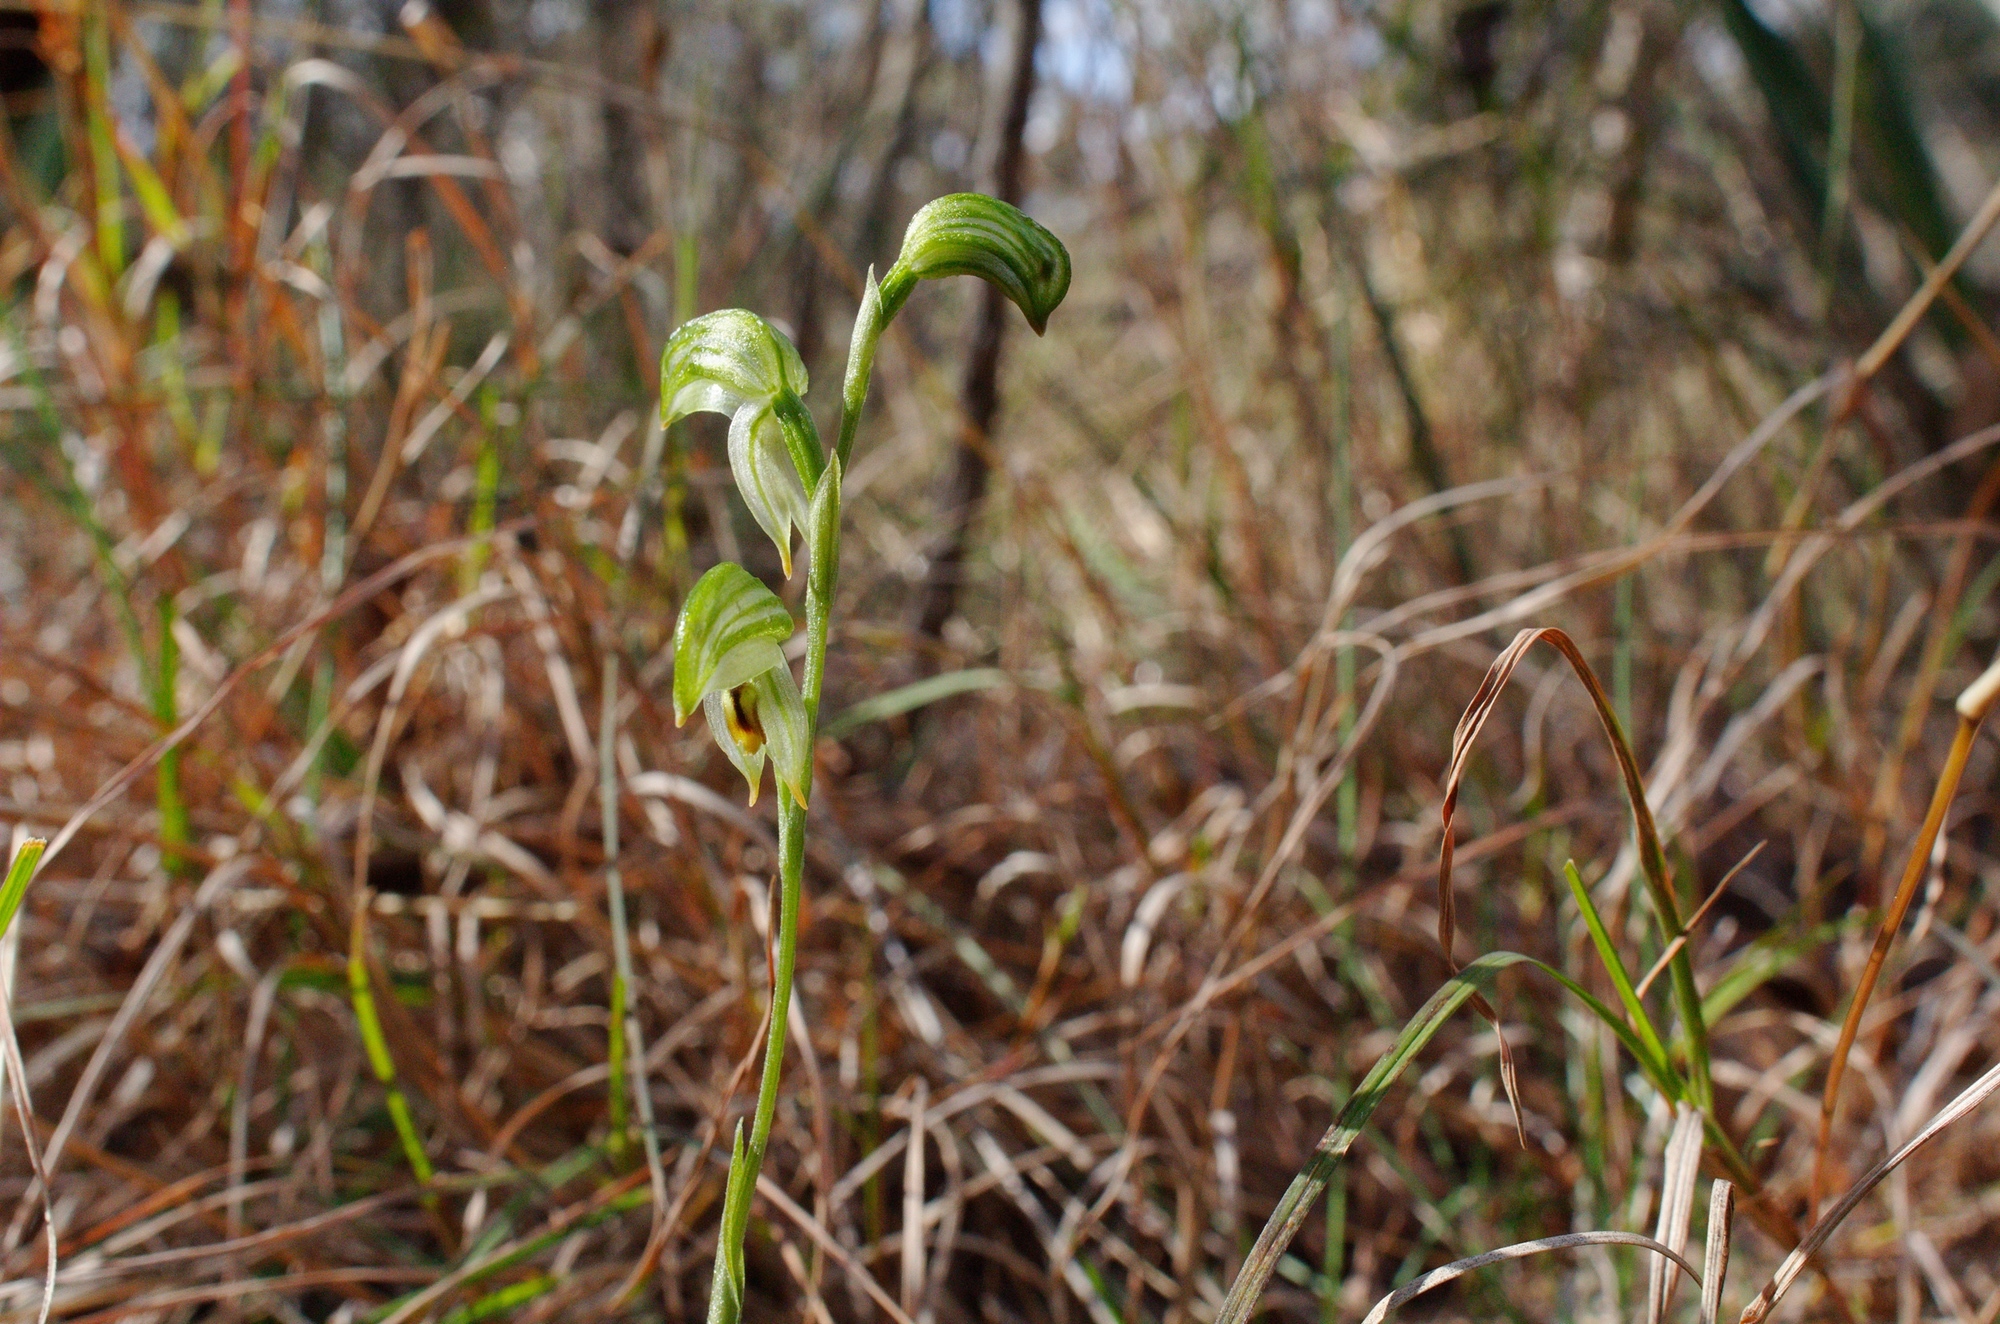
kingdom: Plantae
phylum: Tracheophyta
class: Liliopsida
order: Asparagales
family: Orchidaceae
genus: Pterostylis
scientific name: Pterostylis melagramma
